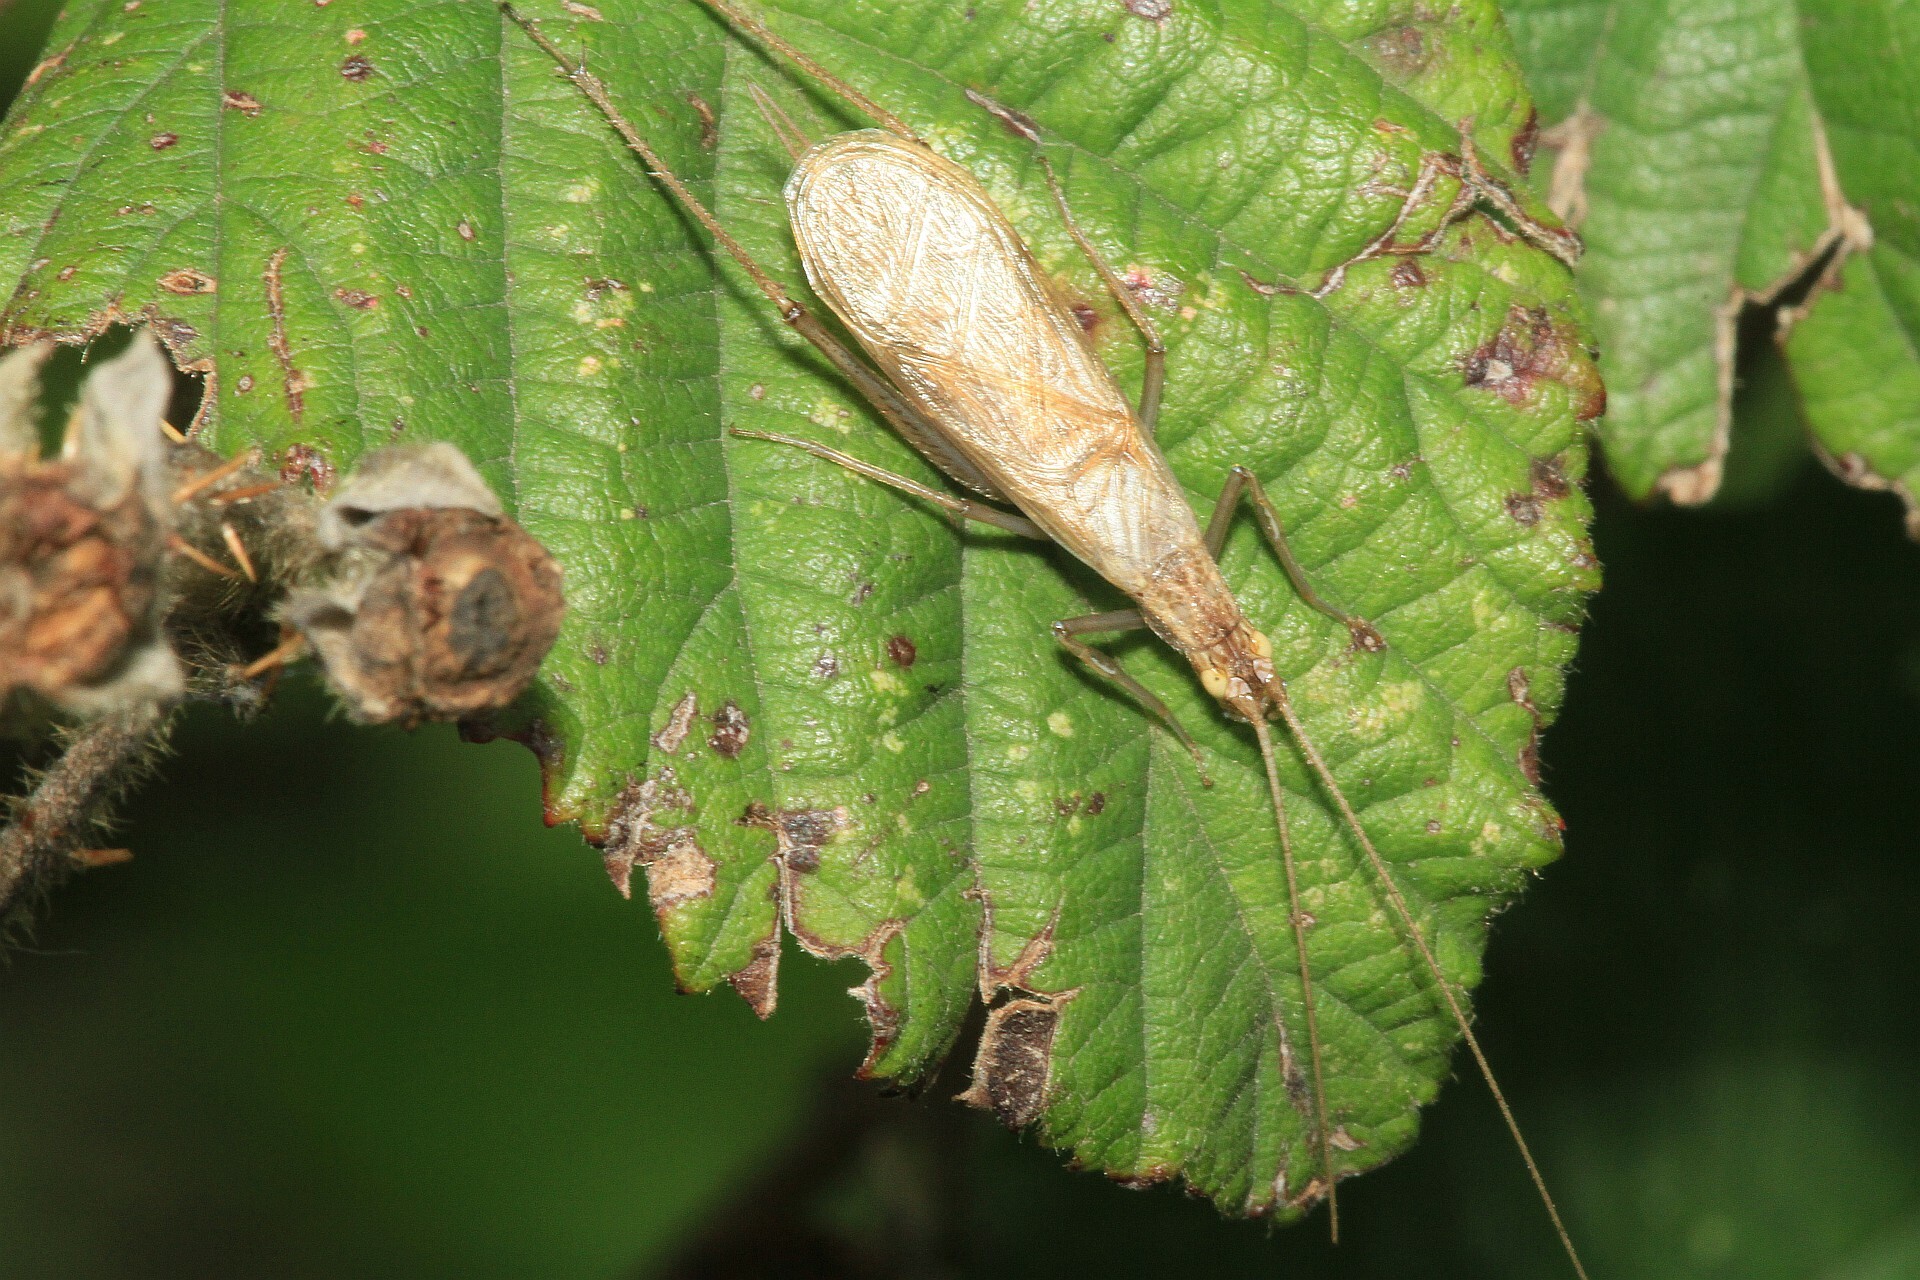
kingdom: Animalia
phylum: Arthropoda
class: Insecta
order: Orthoptera
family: Gryllidae
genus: Oecanthus
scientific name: Oecanthus pellucens
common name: Tree-cricket
